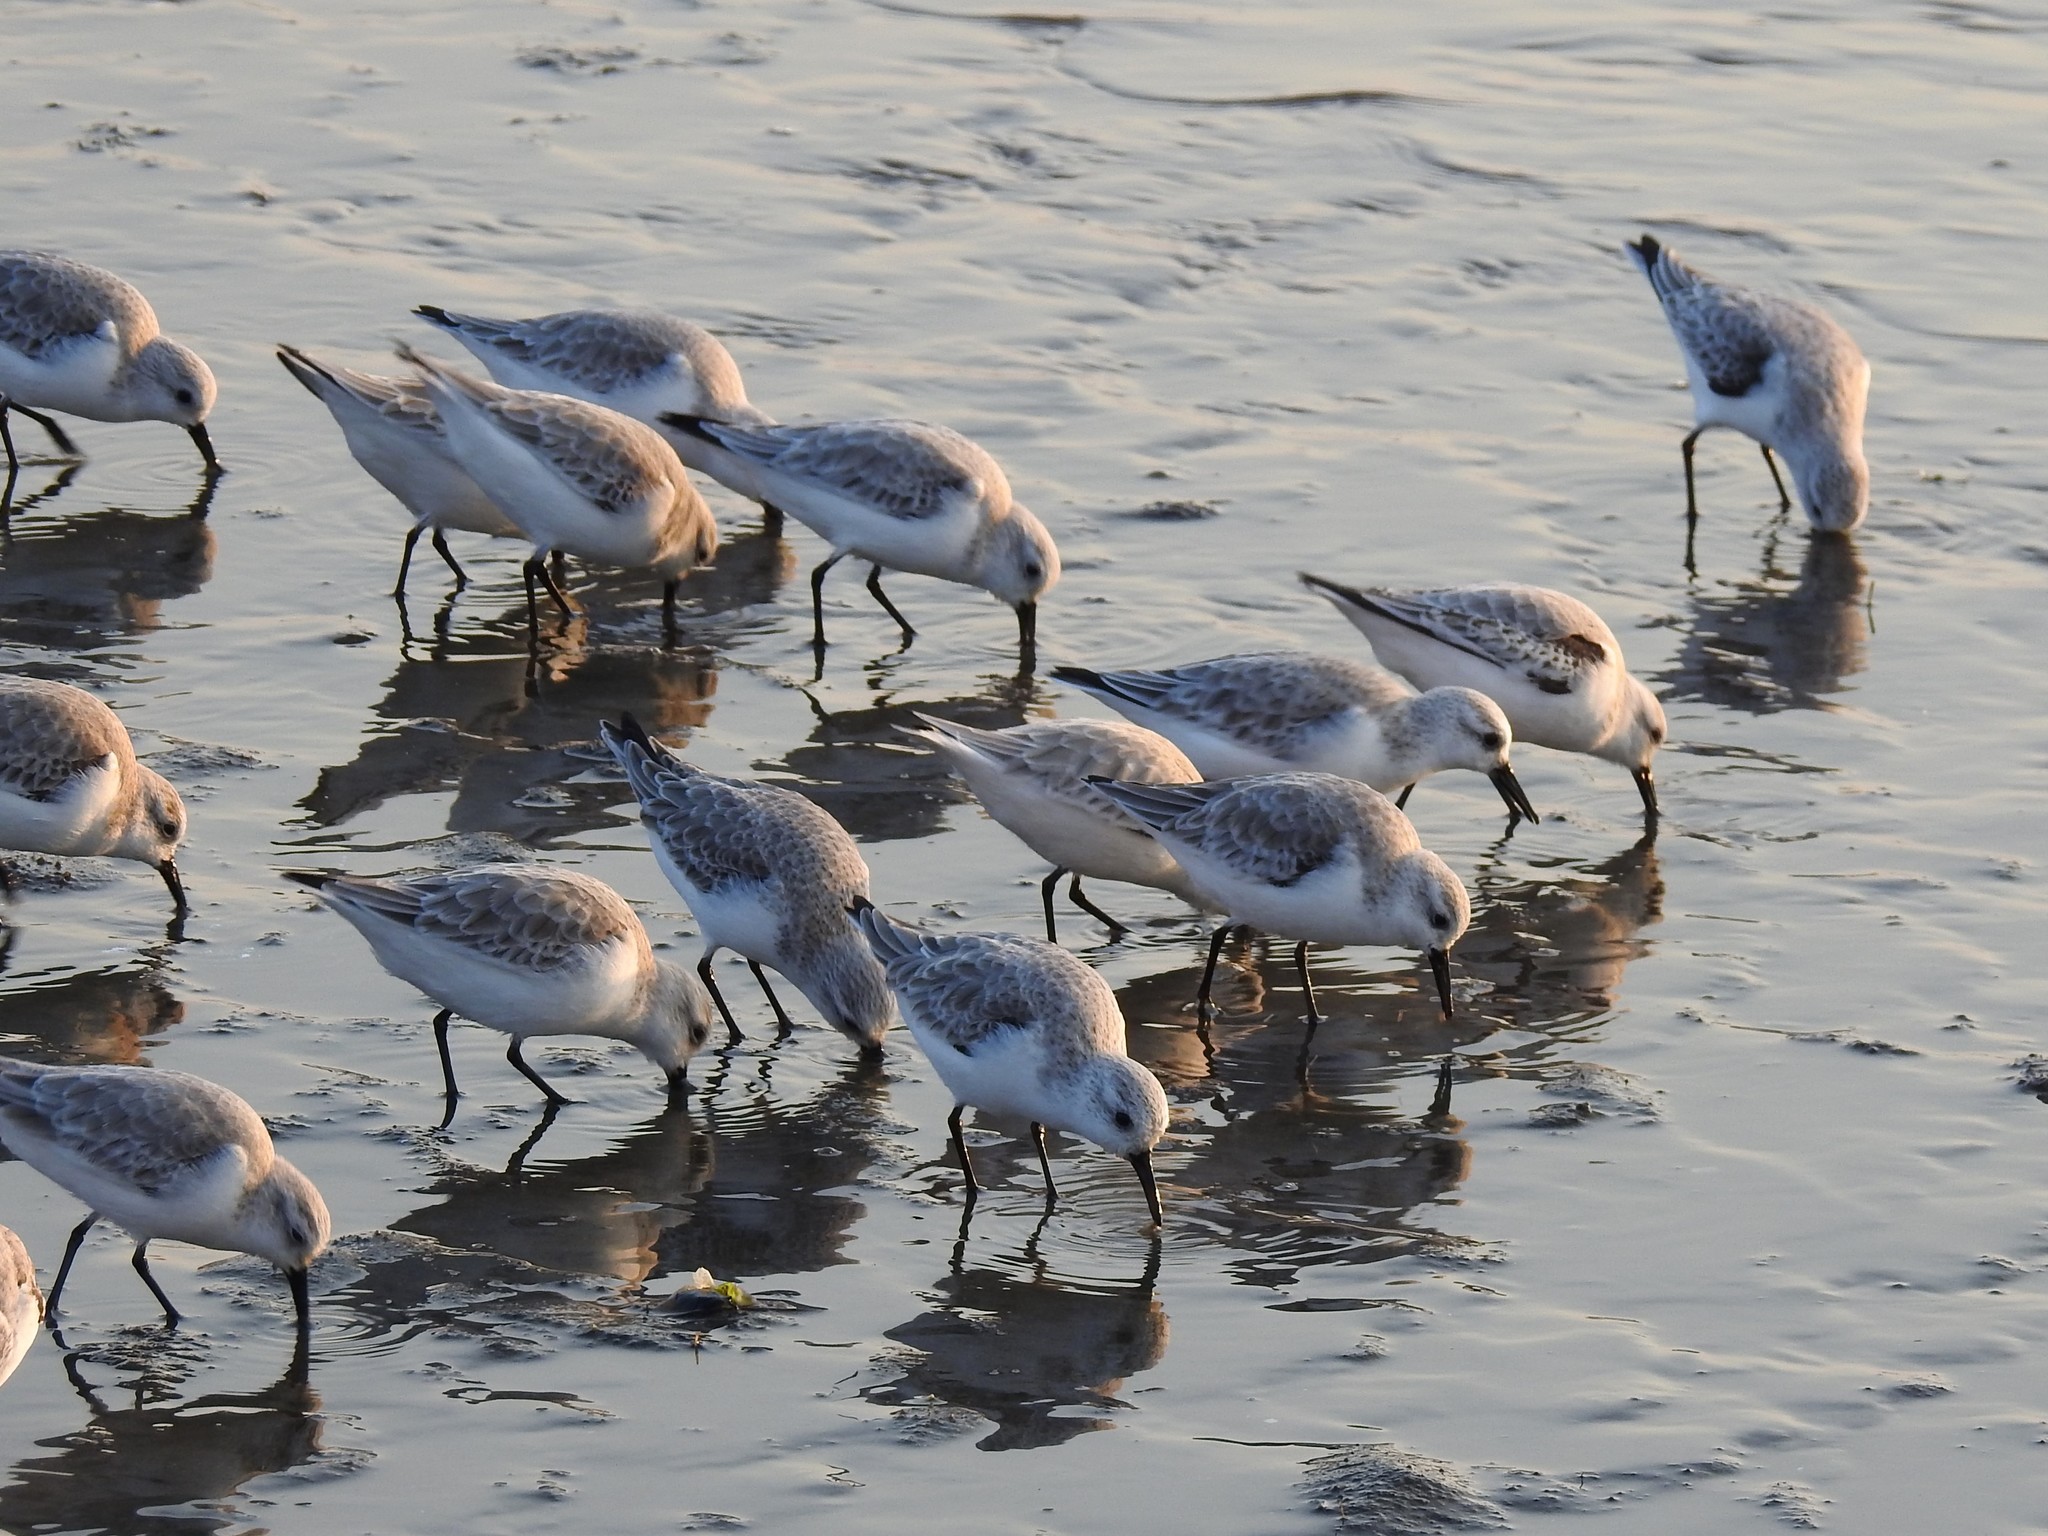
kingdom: Animalia
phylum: Chordata
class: Aves
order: Charadriiformes
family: Scolopacidae
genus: Calidris
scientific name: Calidris alba
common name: Sanderling
